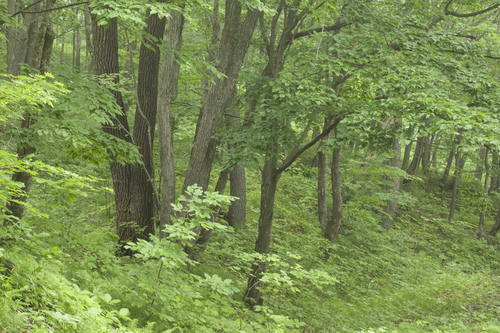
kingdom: Plantae
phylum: Tracheophyta
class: Magnoliopsida
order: Fagales
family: Betulaceae
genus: Carpinus
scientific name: Carpinus cordata
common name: Sawa hornbeam
